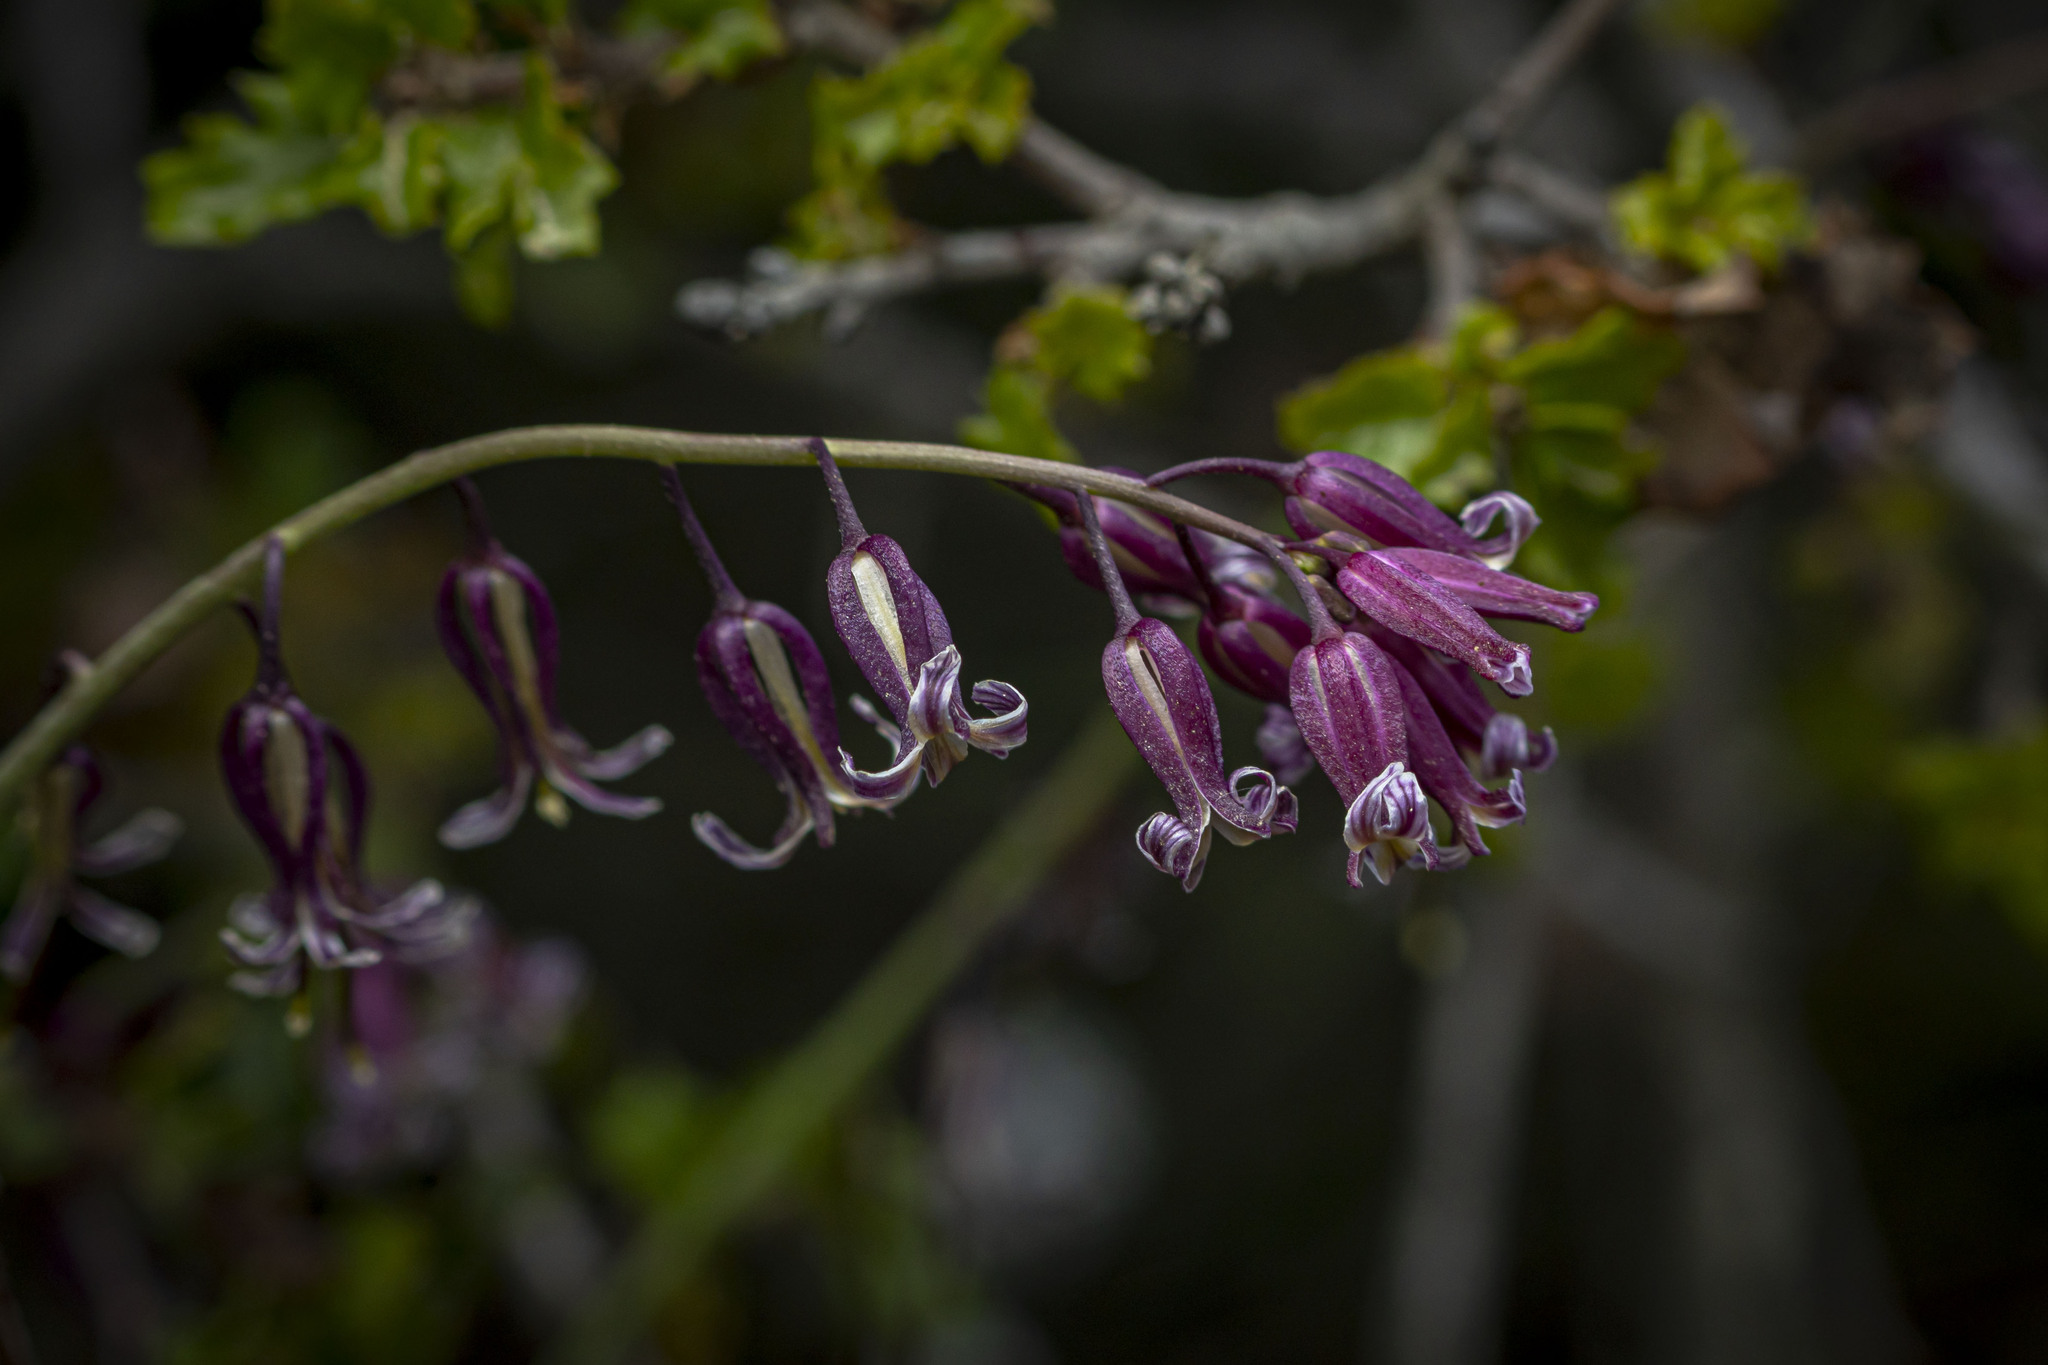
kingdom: Plantae
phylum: Tracheophyta
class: Magnoliopsida
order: Brassicales
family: Brassicaceae
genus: Streptanthus
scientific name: Streptanthus heterophyllus
